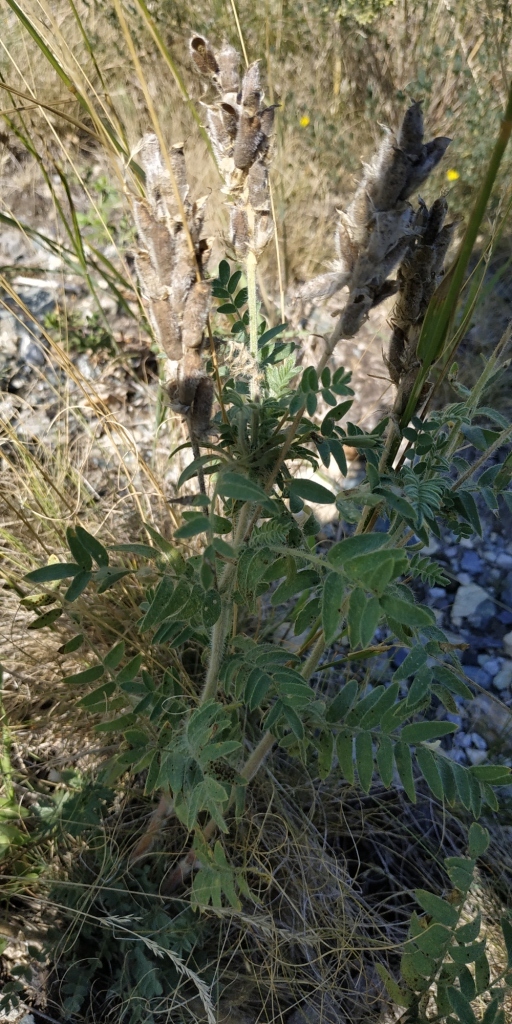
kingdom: Plantae
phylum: Tracheophyta
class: Magnoliopsida
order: Fabales
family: Fabaceae
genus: Oxytropis
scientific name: Oxytropis pilosa
